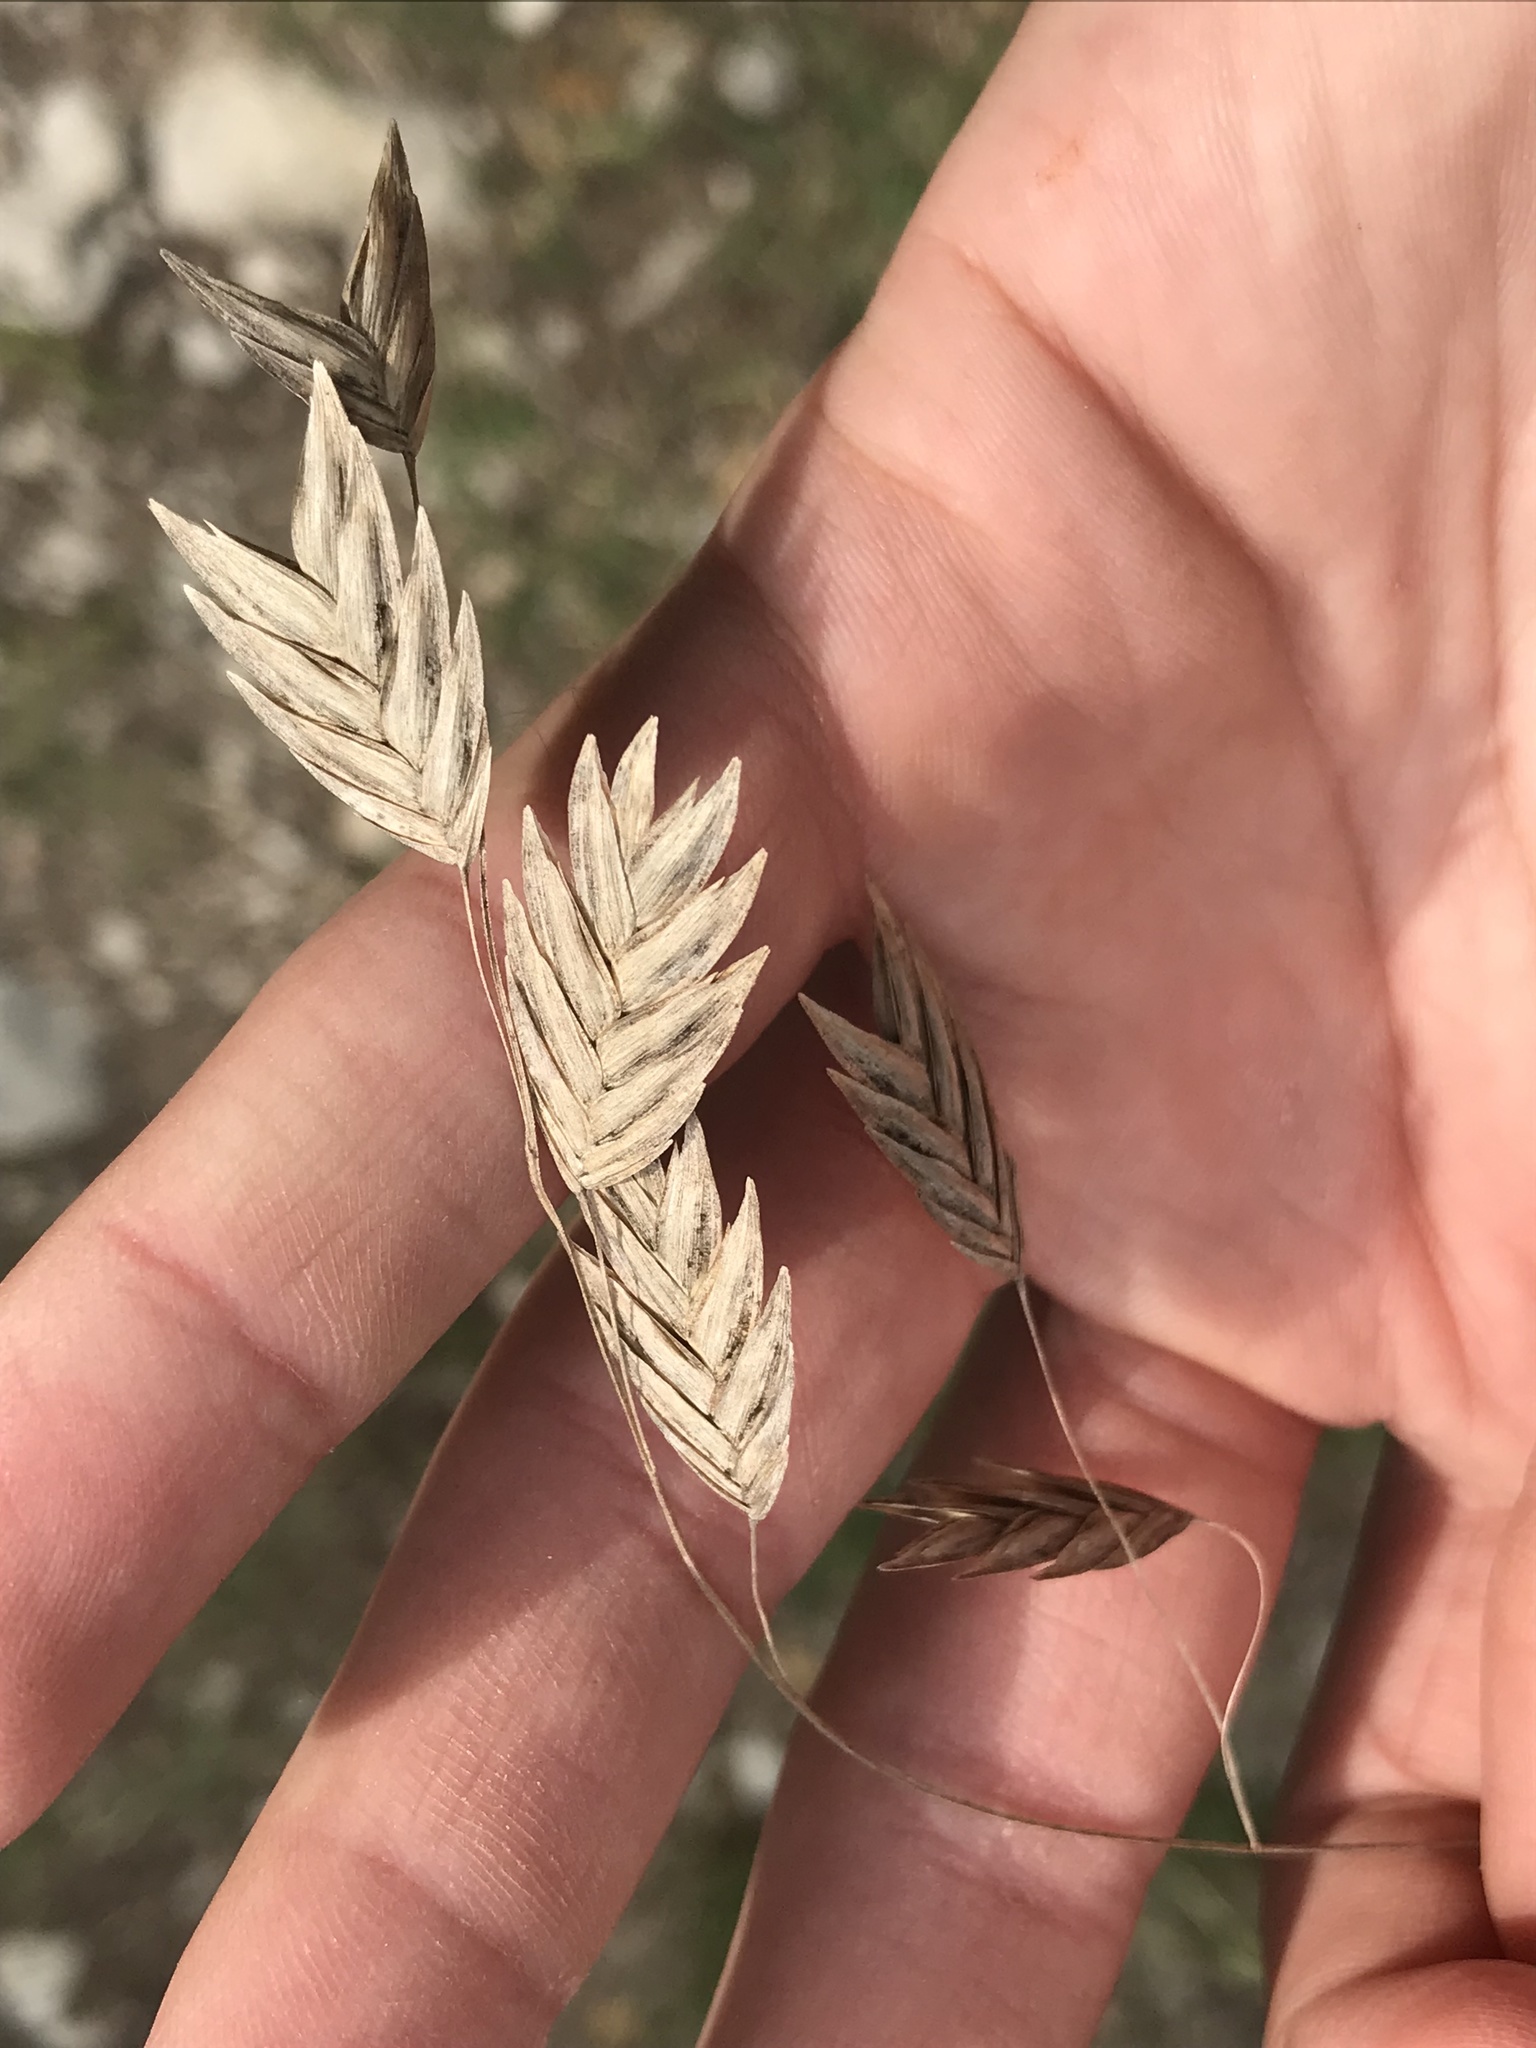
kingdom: Plantae
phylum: Tracheophyta
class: Liliopsida
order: Poales
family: Poaceae
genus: Chasmanthium
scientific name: Chasmanthium latifolium
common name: Broad-leaved chasmanthium
